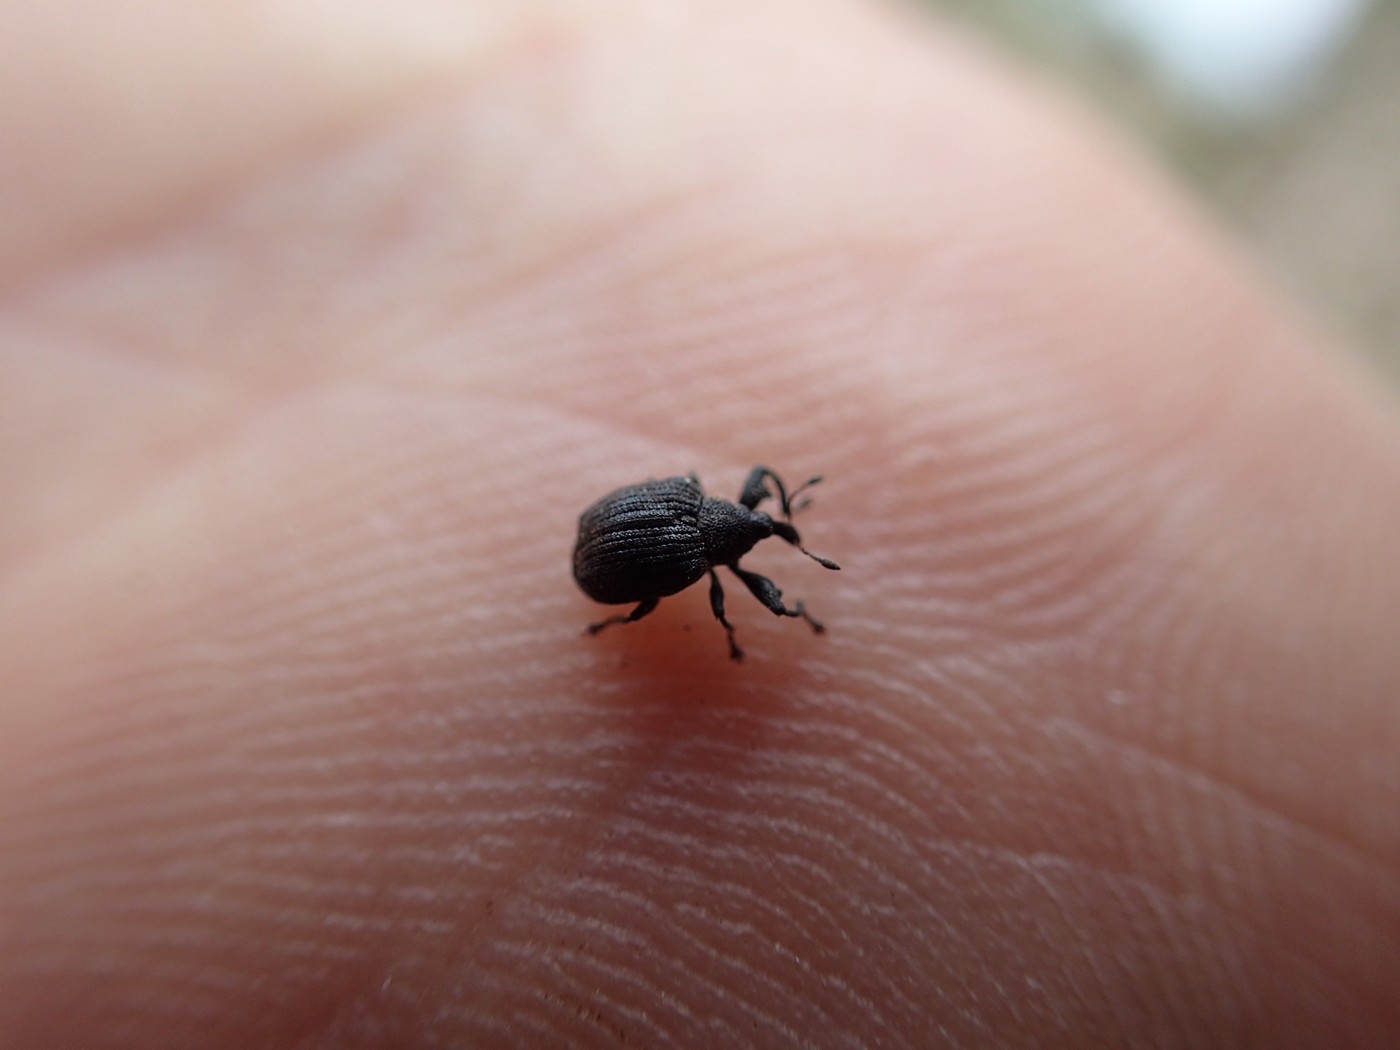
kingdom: Animalia
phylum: Arthropoda
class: Insecta
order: Coleoptera
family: Curculionidae
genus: Odontopus
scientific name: Odontopus calceatus
